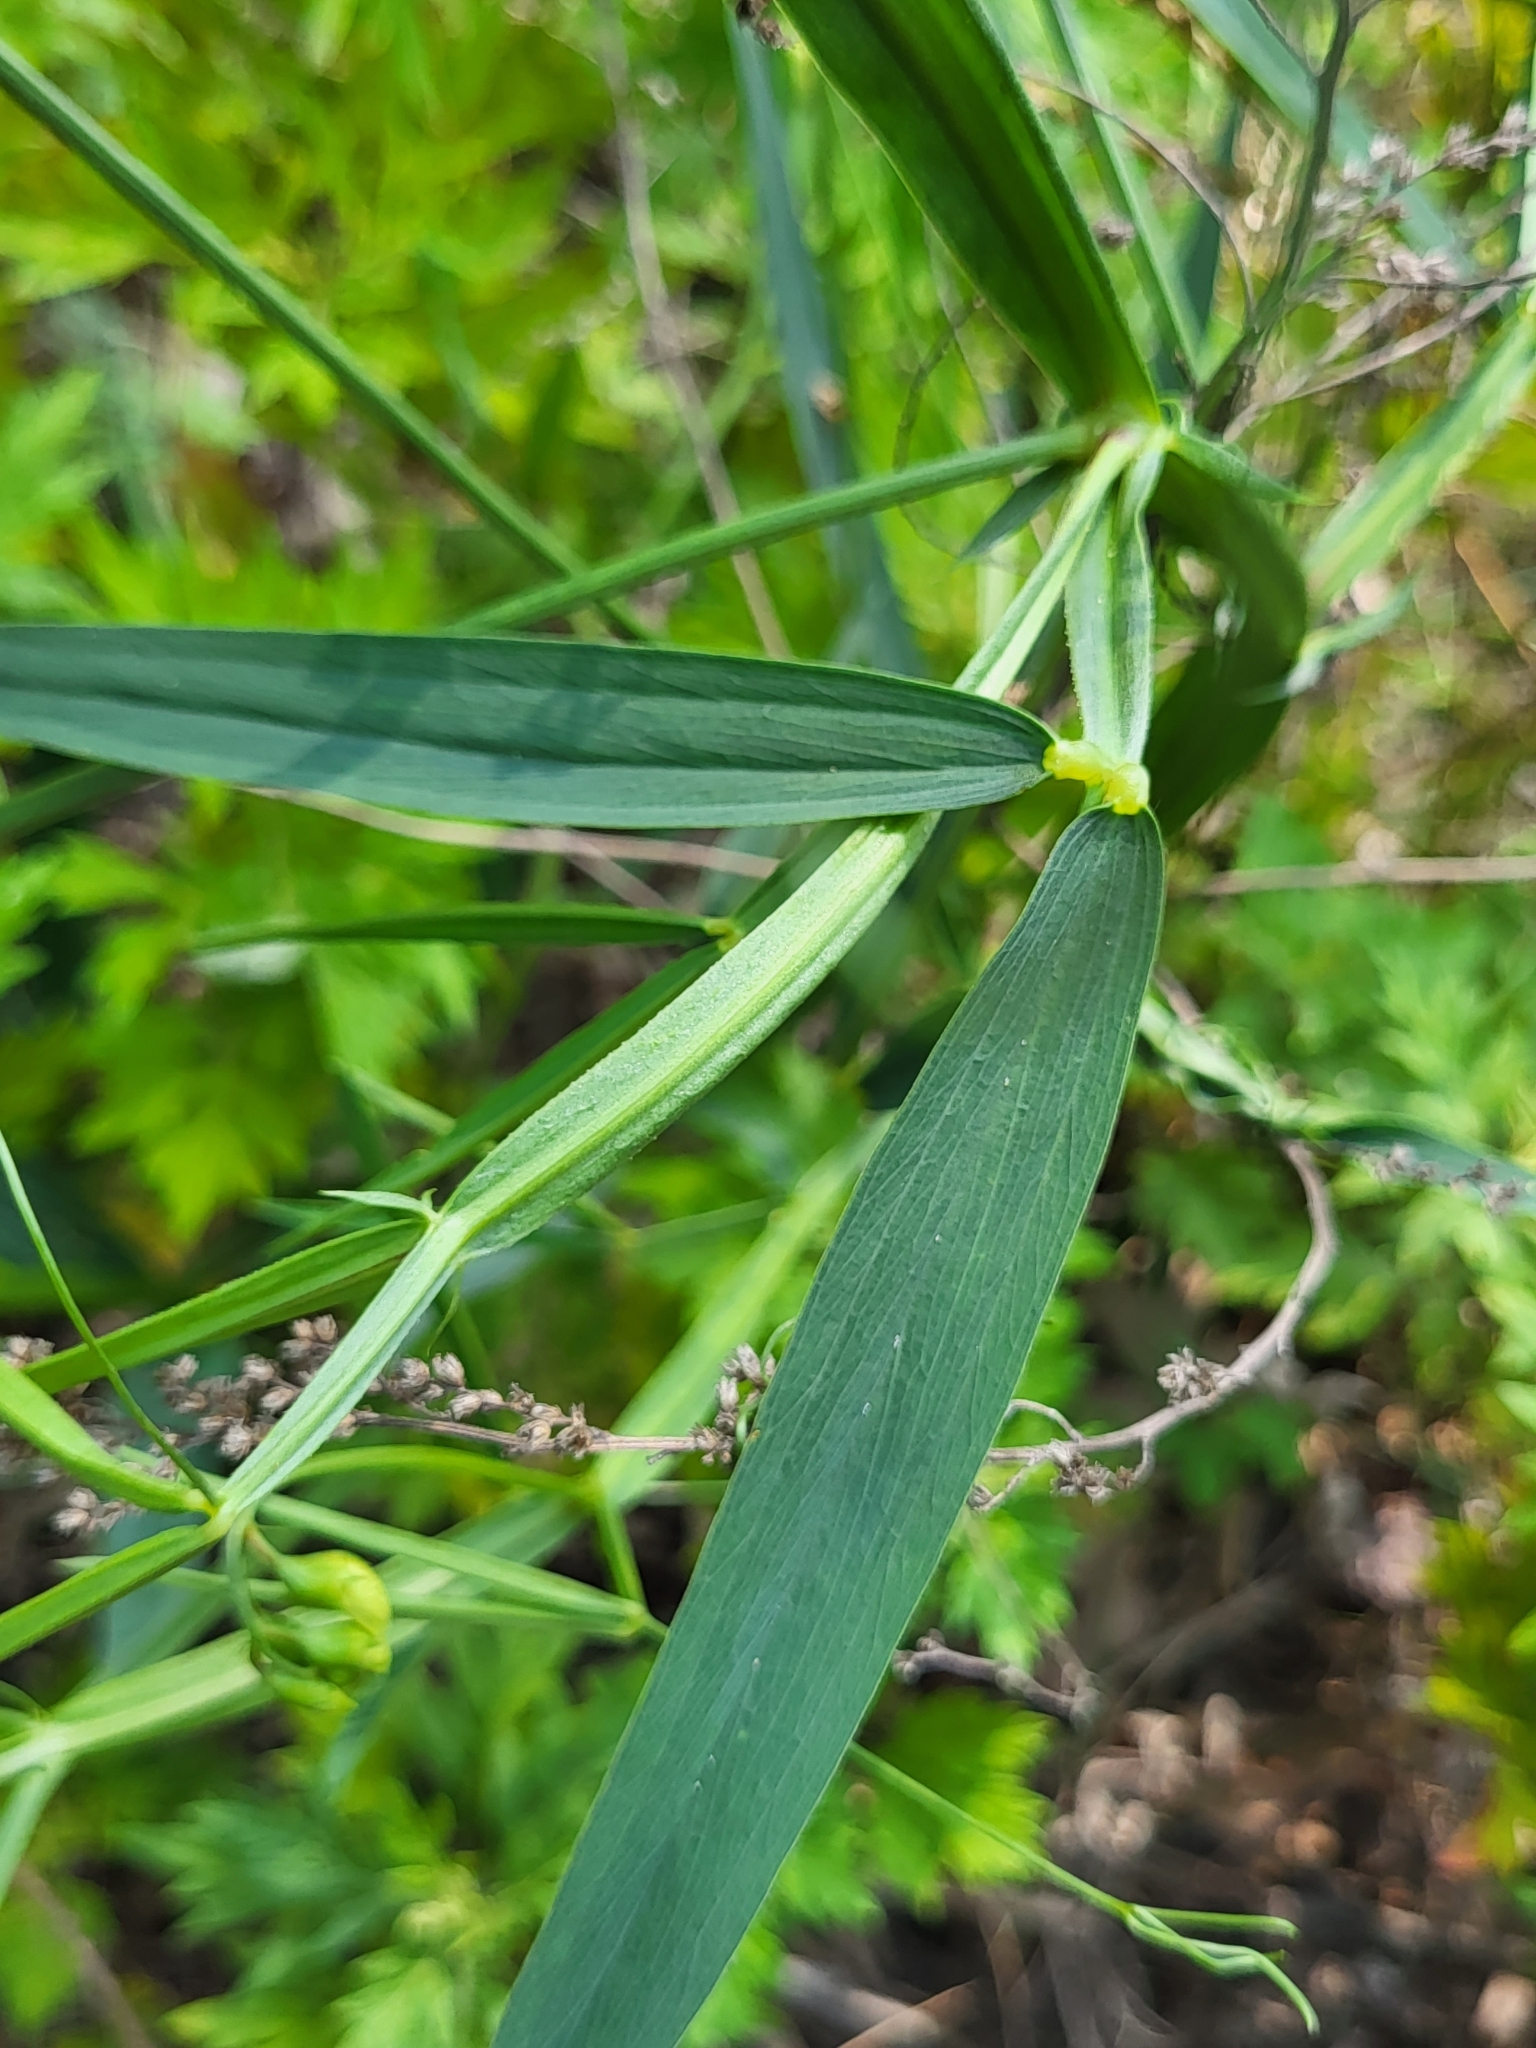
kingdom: Plantae
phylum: Tracheophyta
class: Magnoliopsida
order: Fabales
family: Fabaceae
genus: Lathyrus
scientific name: Lathyrus sylvestris
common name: Flat pea
